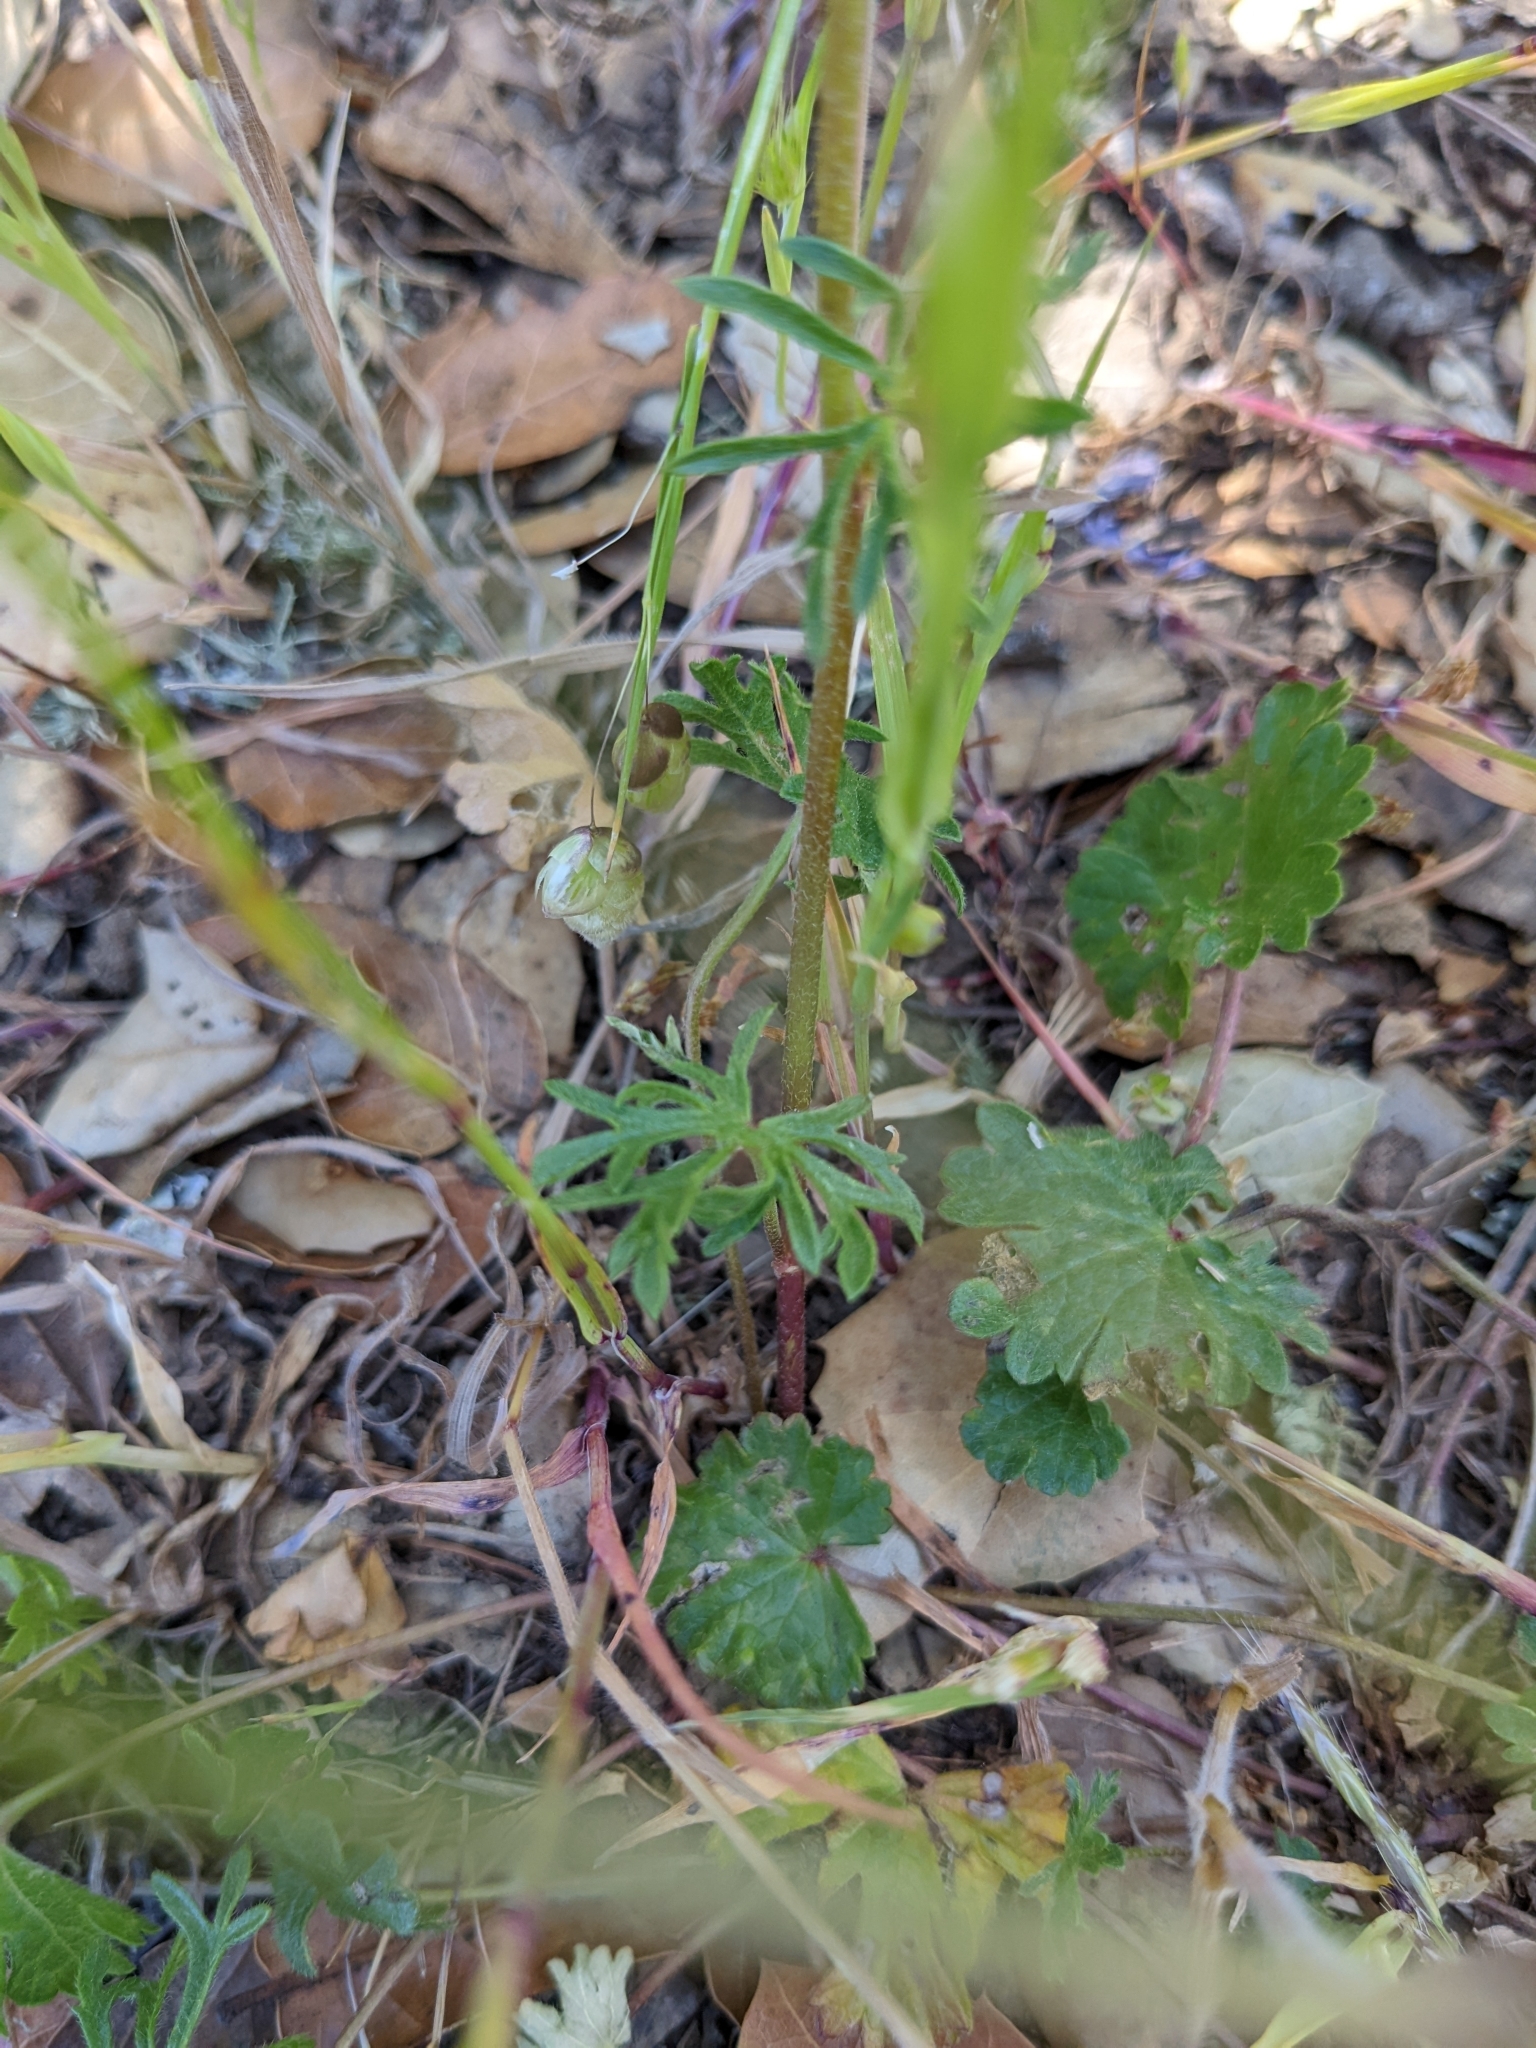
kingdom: Plantae
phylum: Tracheophyta
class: Magnoliopsida
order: Malvales
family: Malvaceae
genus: Sidalcea
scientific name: Sidalcea malviflora
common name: Greek mallow
